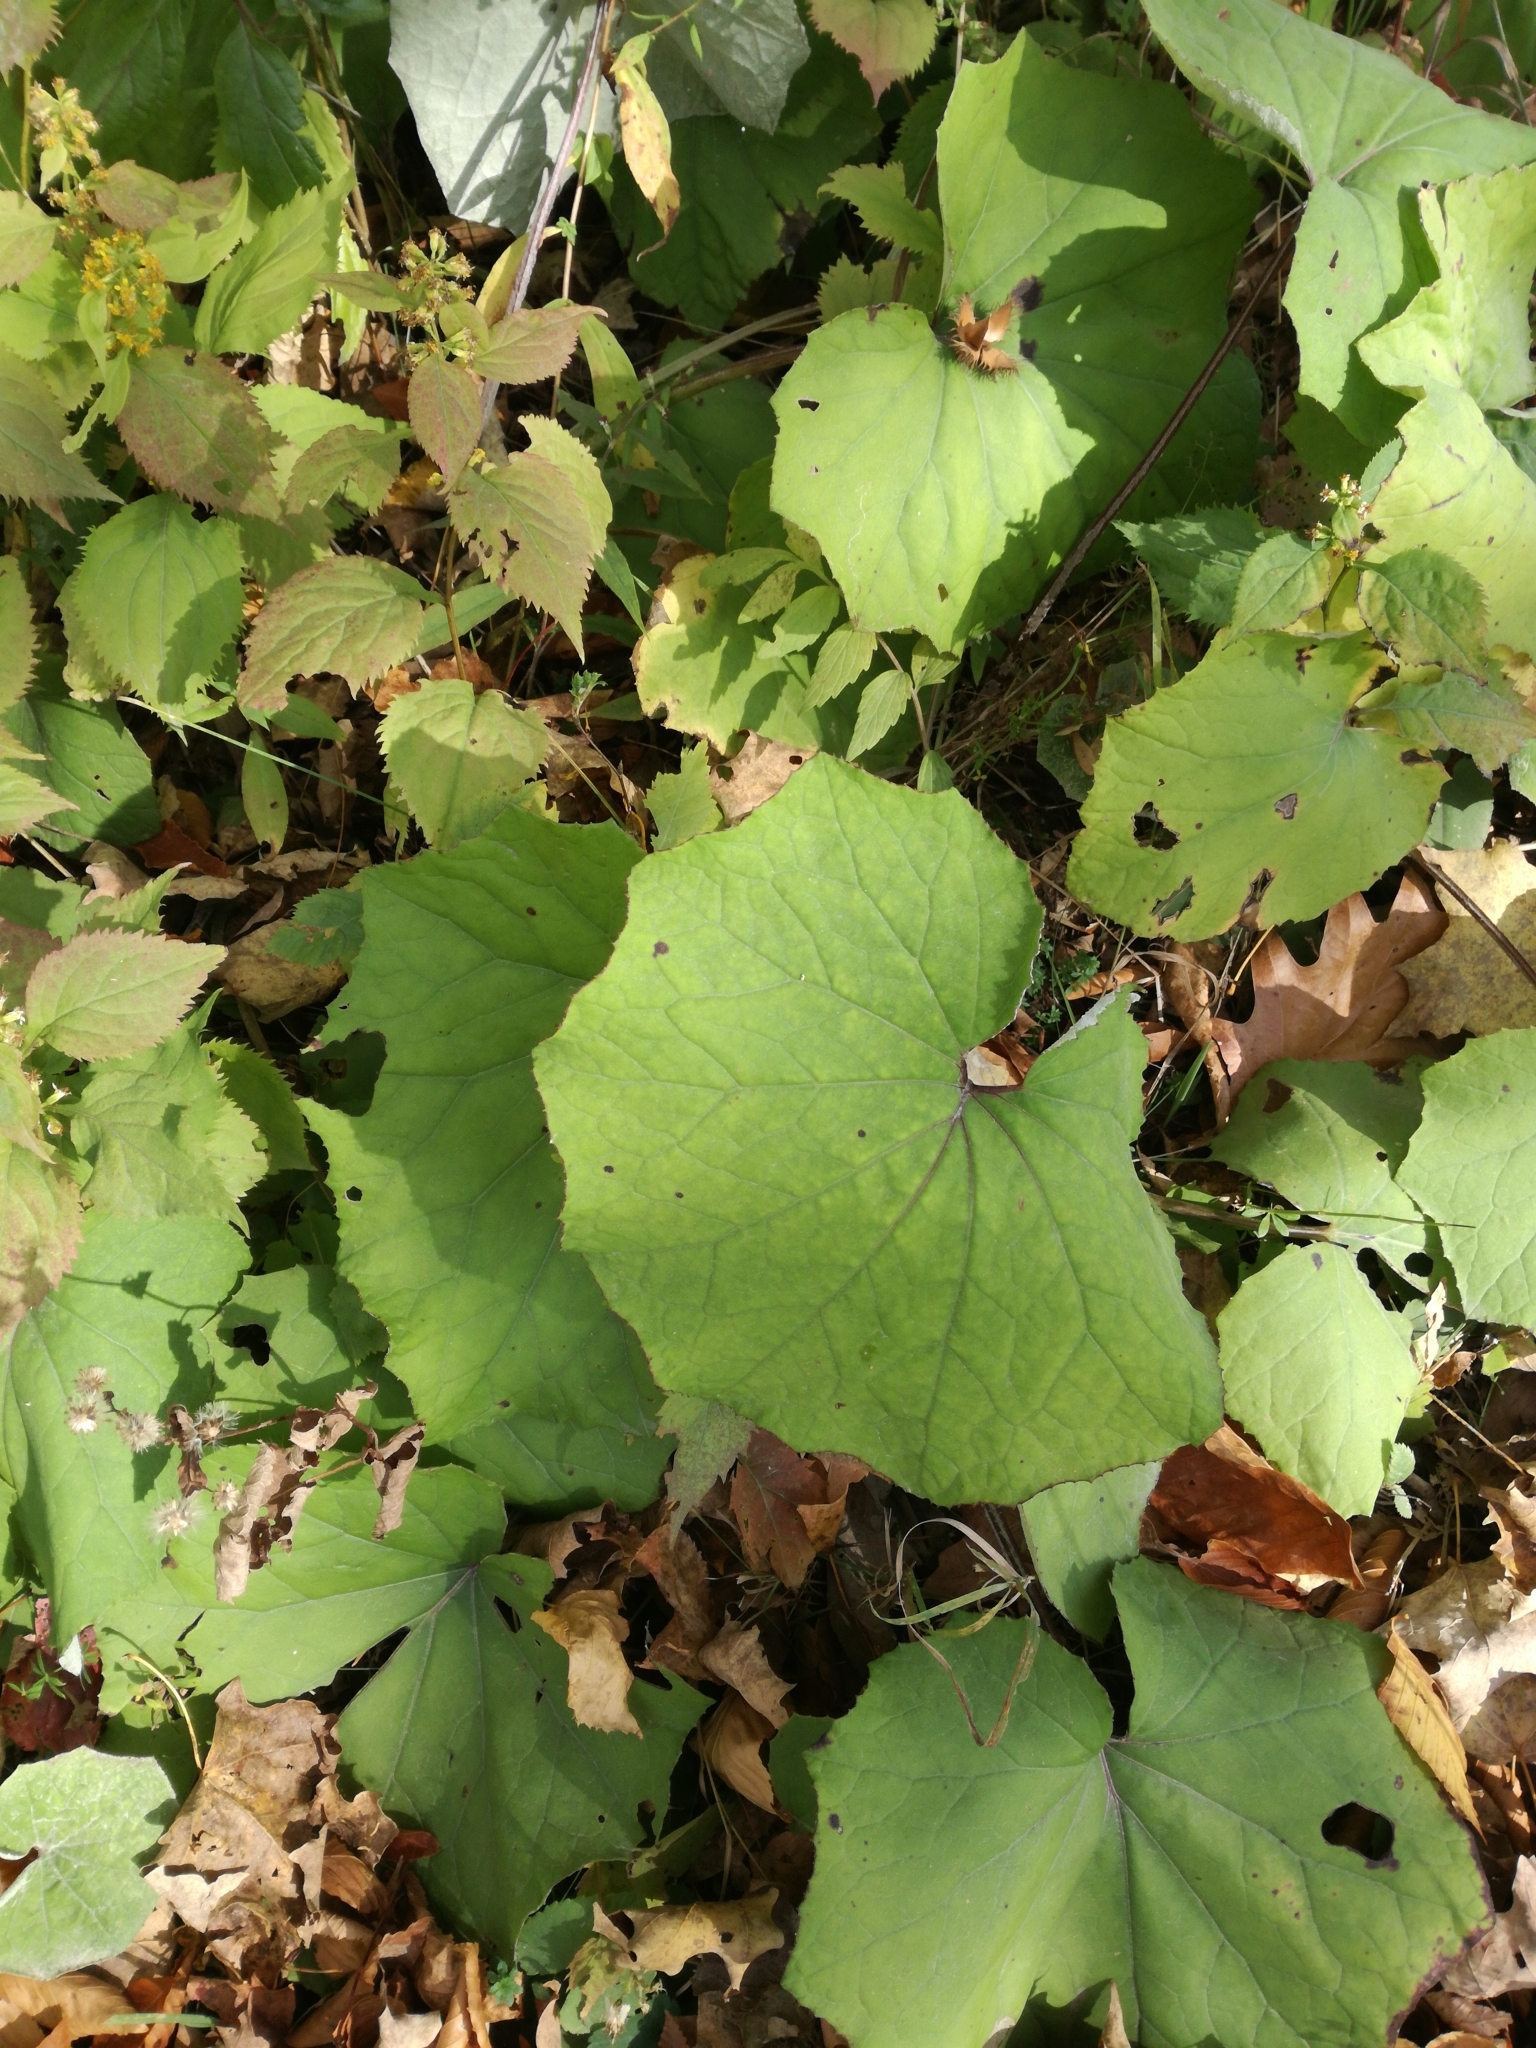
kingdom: Plantae
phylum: Tracheophyta
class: Magnoliopsida
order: Asterales
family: Asteraceae
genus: Tussilago
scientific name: Tussilago farfara
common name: Coltsfoot
